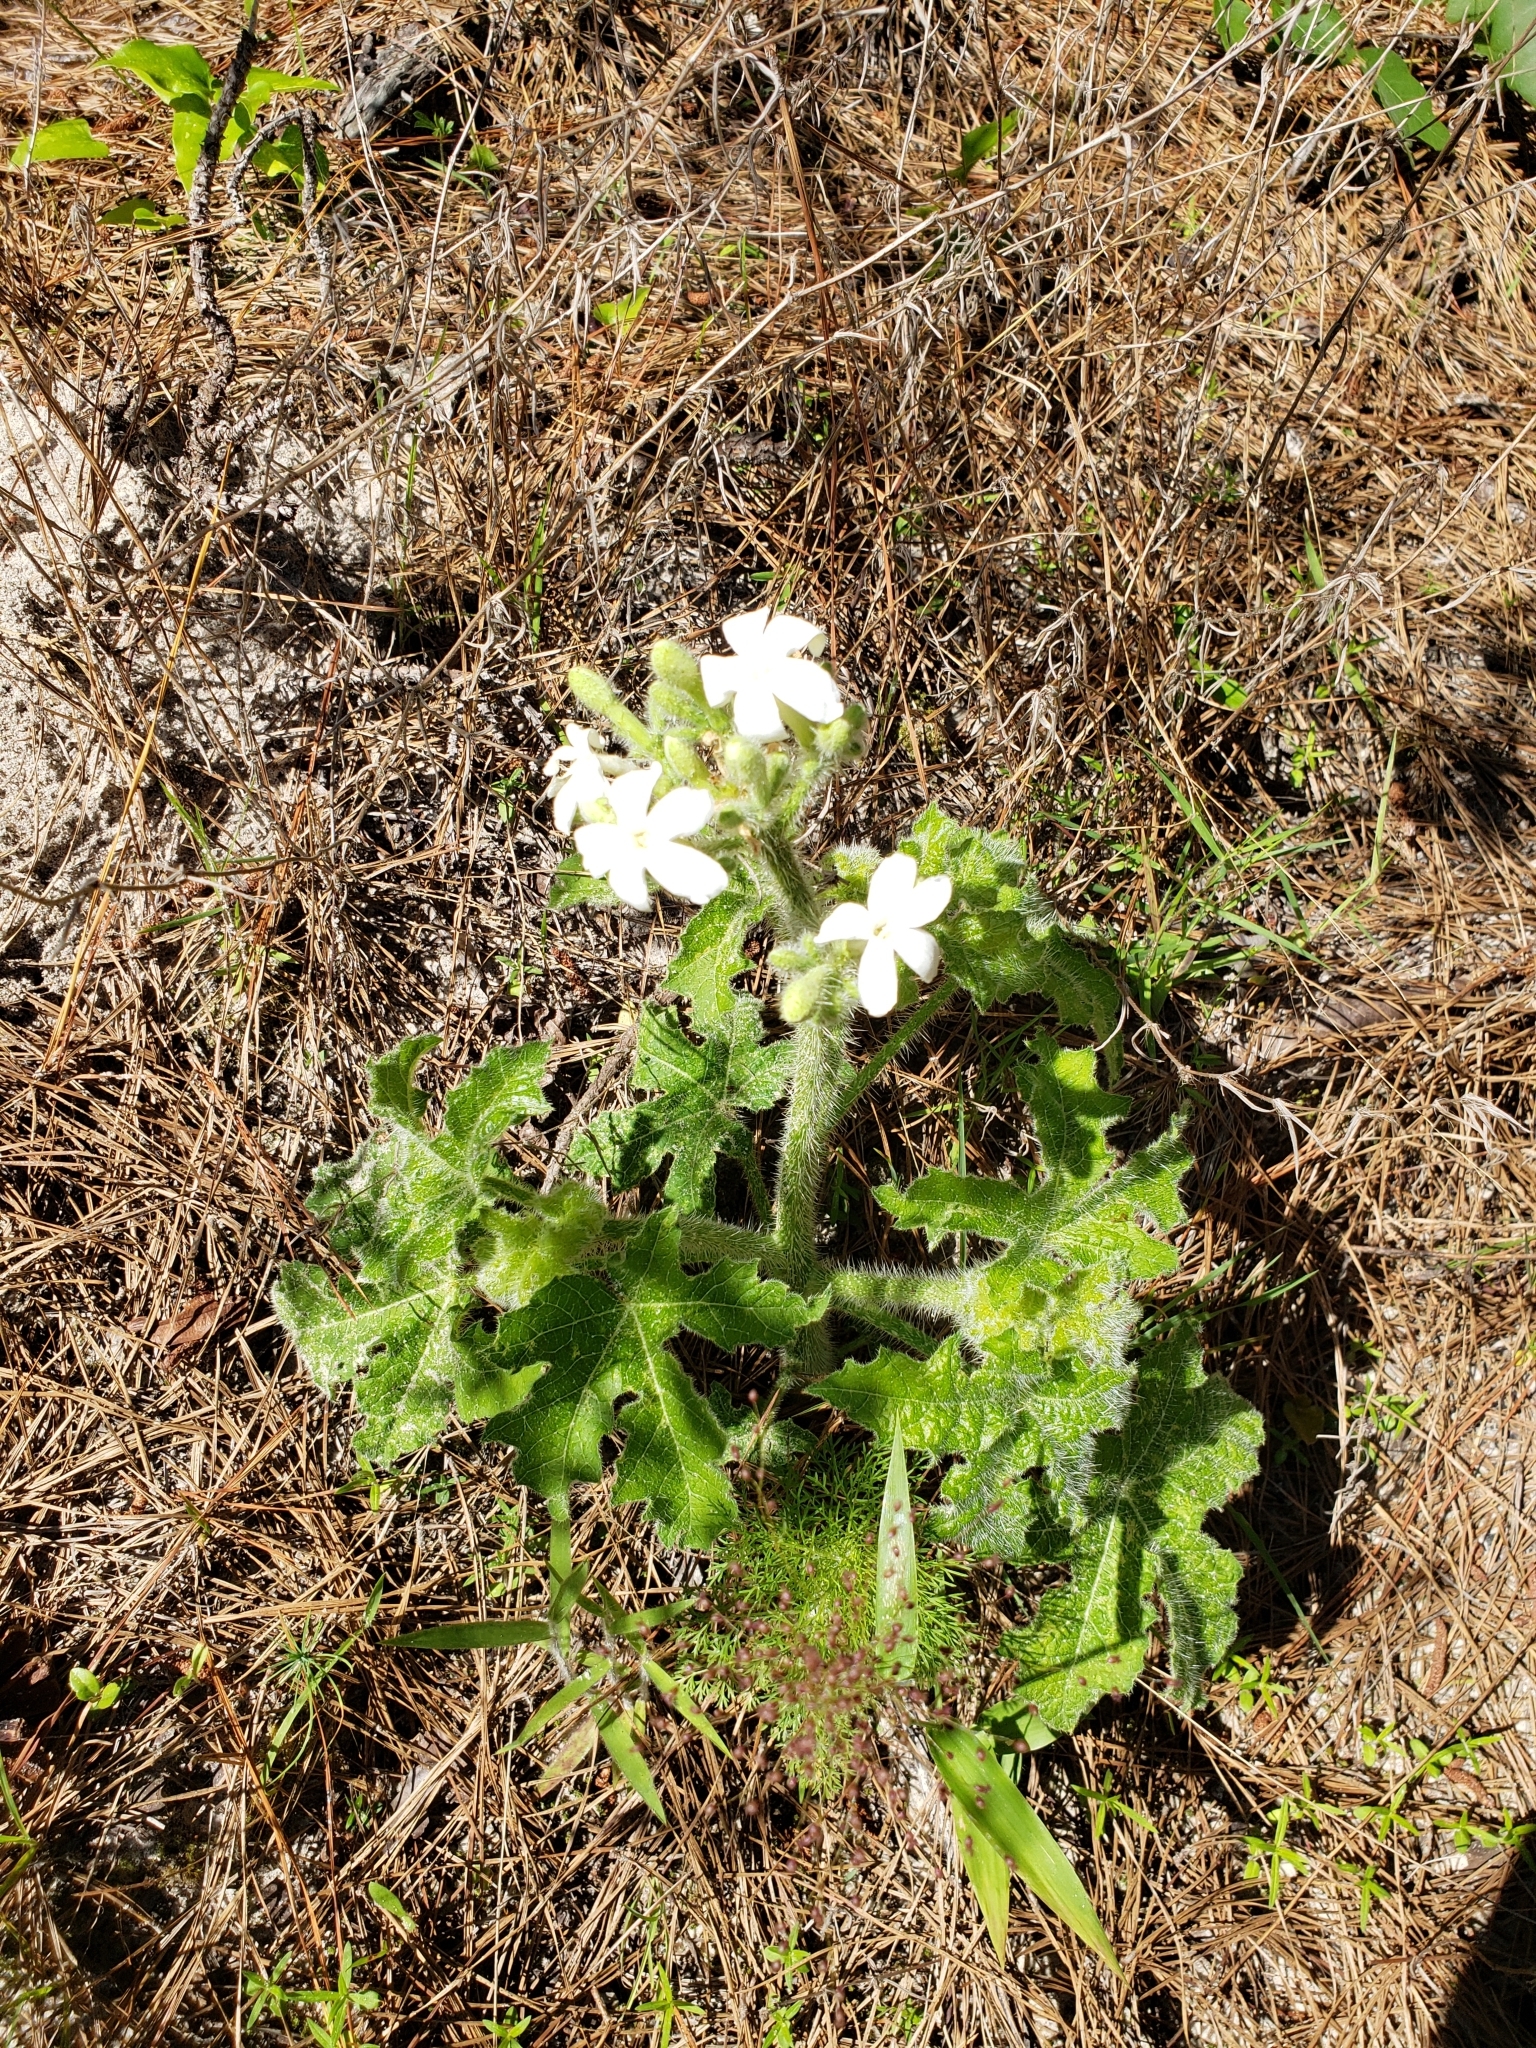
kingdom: Plantae
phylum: Tracheophyta
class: Magnoliopsida
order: Malpighiales
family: Euphorbiaceae
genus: Cnidoscolus
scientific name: Cnidoscolus texanus
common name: Texas bull-nettle
